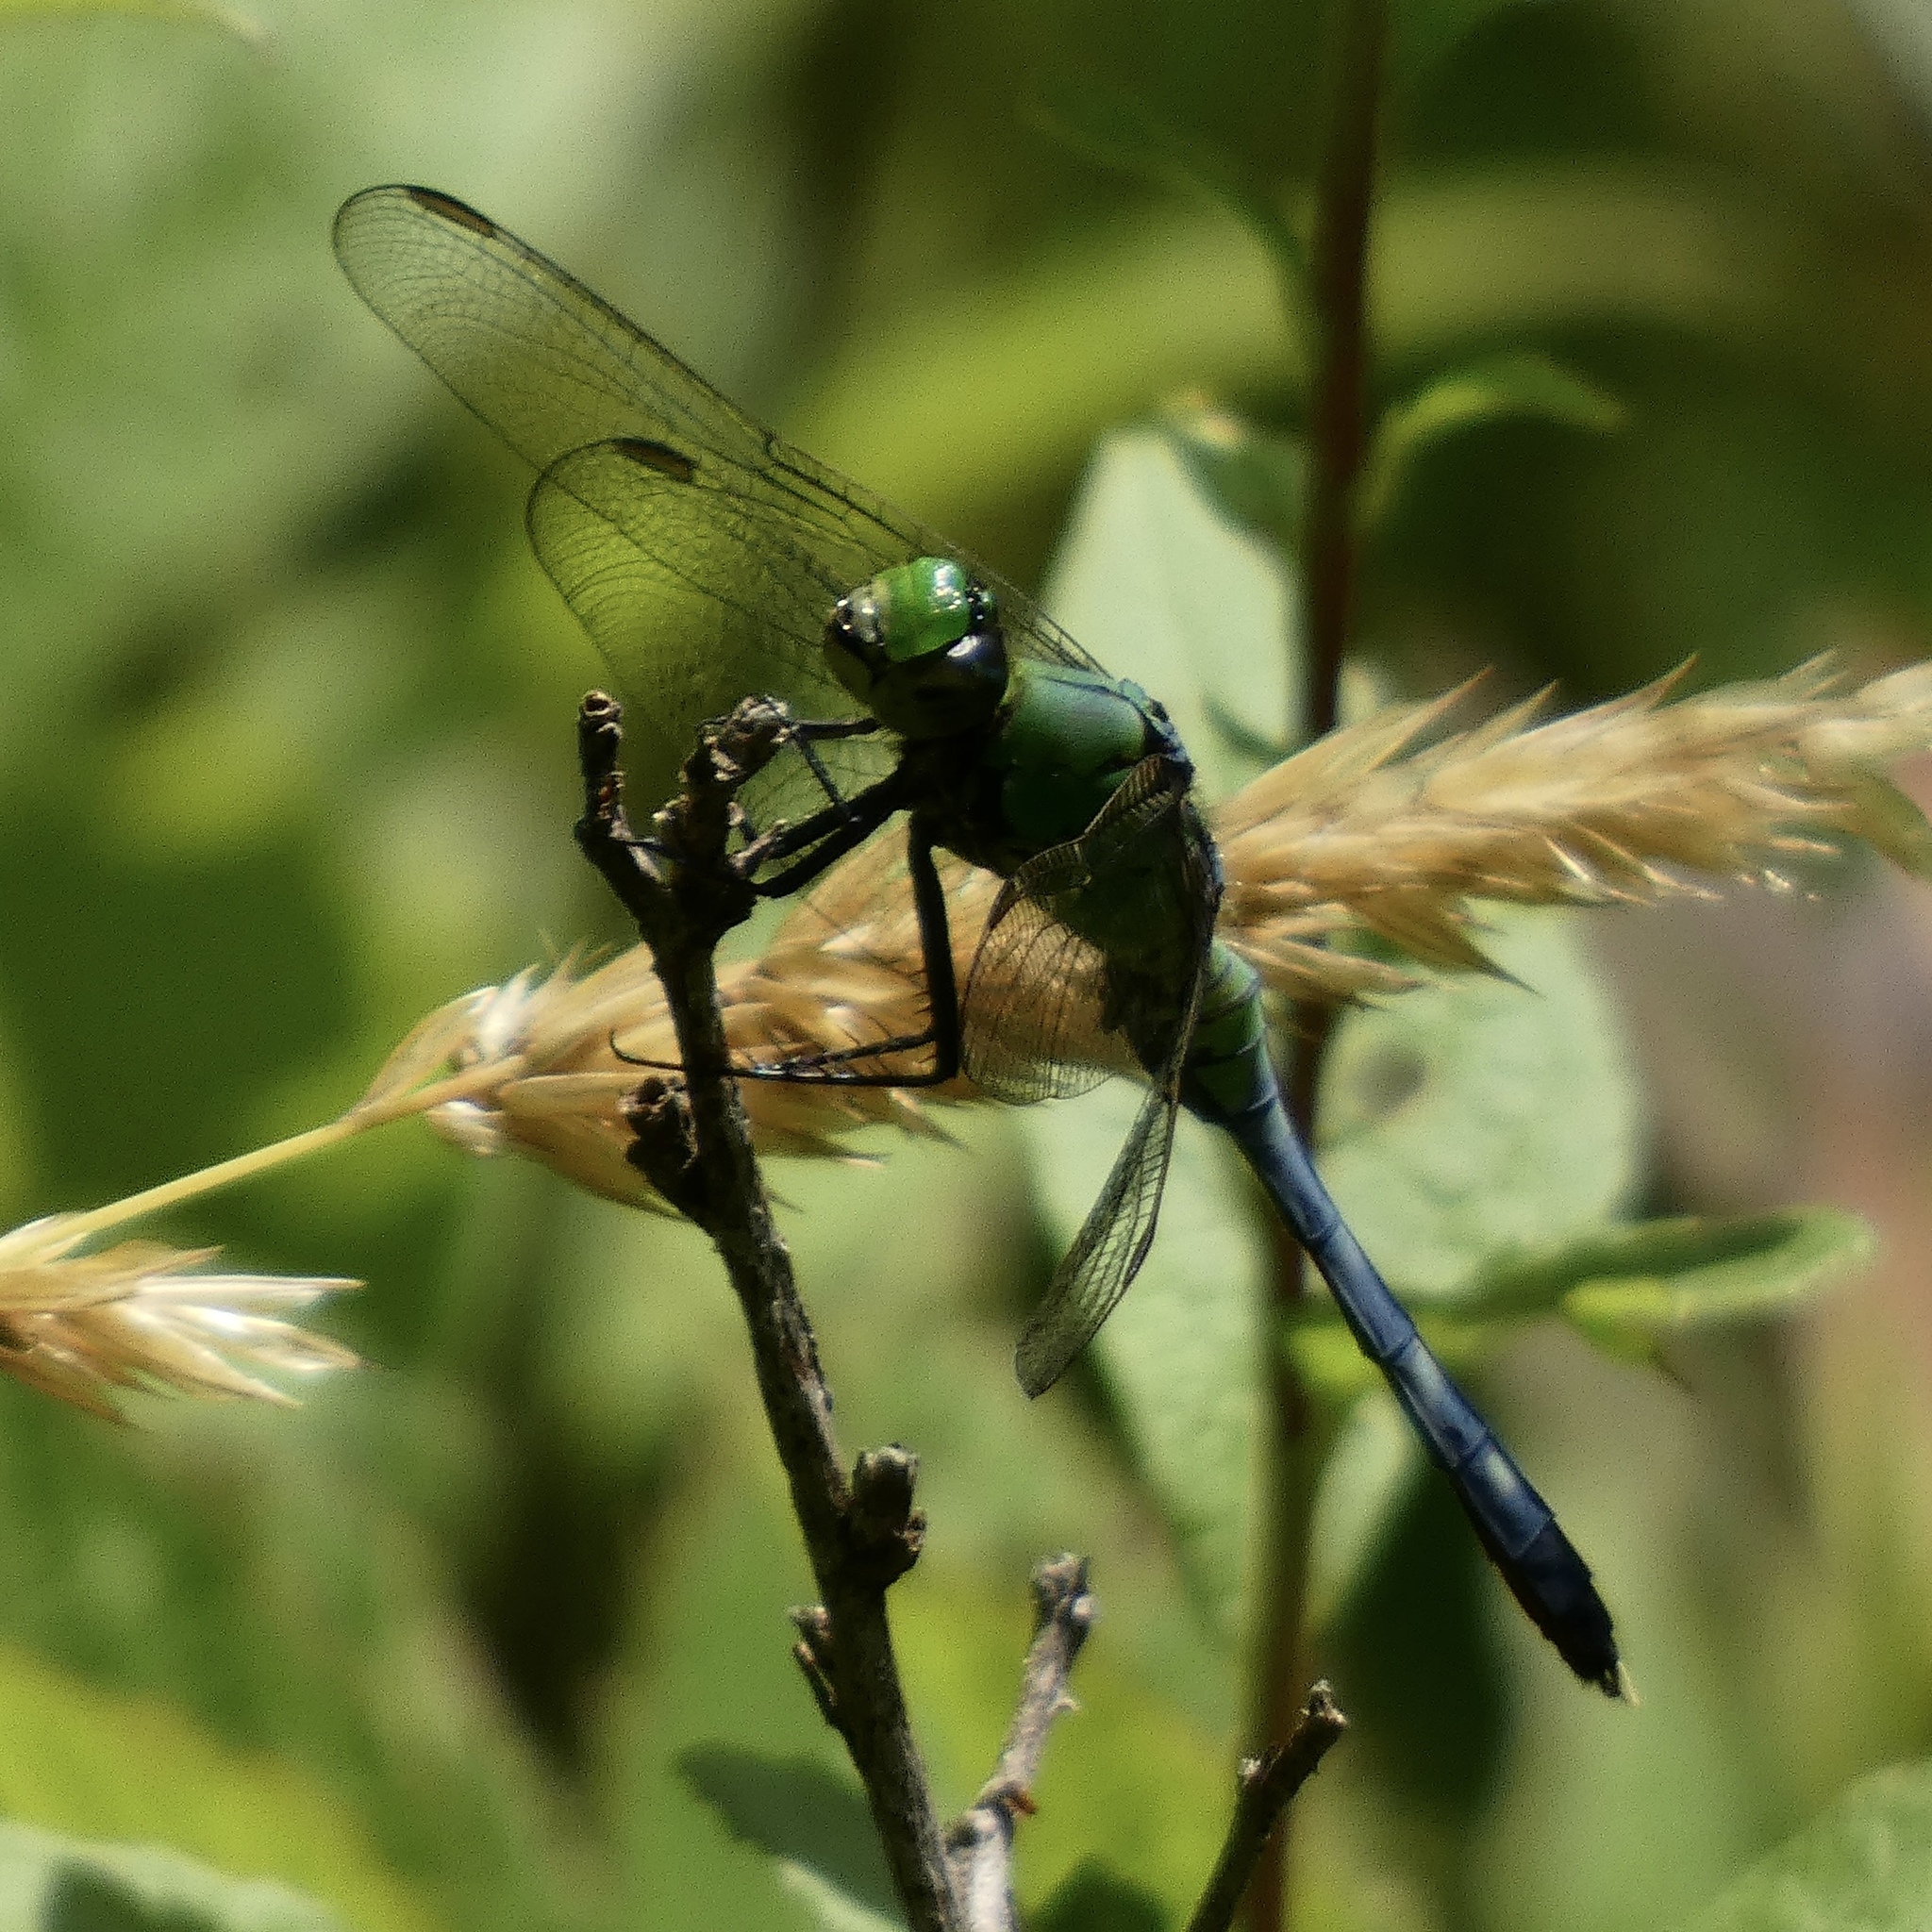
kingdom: Animalia
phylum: Arthropoda
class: Insecta
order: Odonata
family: Libellulidae
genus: Erythemis
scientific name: Erythemis simplicicollis
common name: Eastern pondhawk
